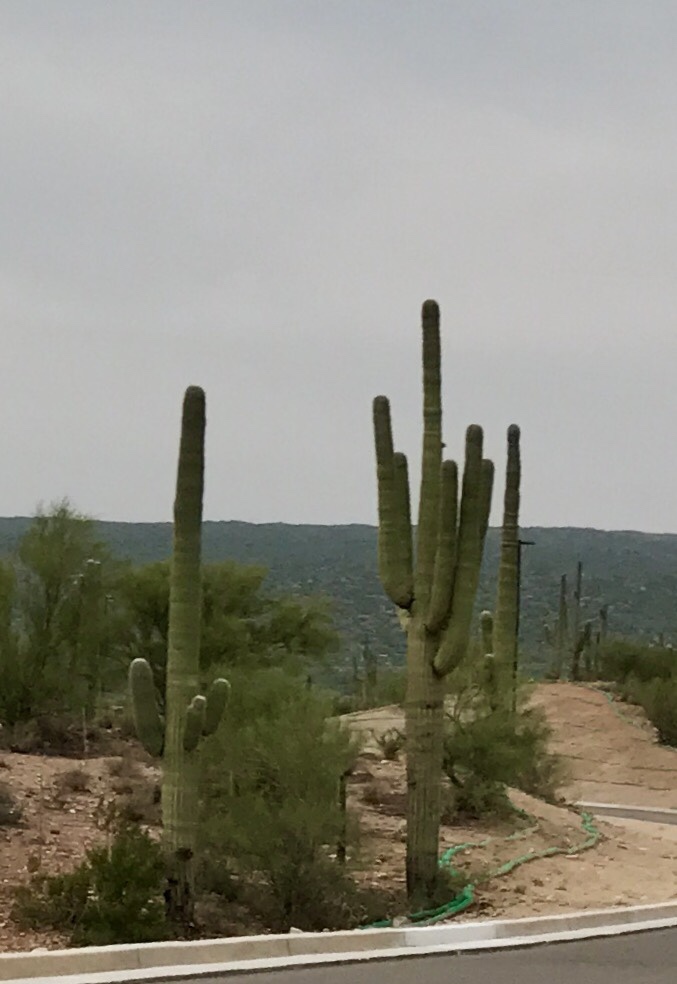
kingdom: Plantae
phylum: Tracheophyta
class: Magnoliopsida
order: Caryophyllales
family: Cactaceae
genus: Carnegiea
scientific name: Carnegiea gigantea
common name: Saguaro
